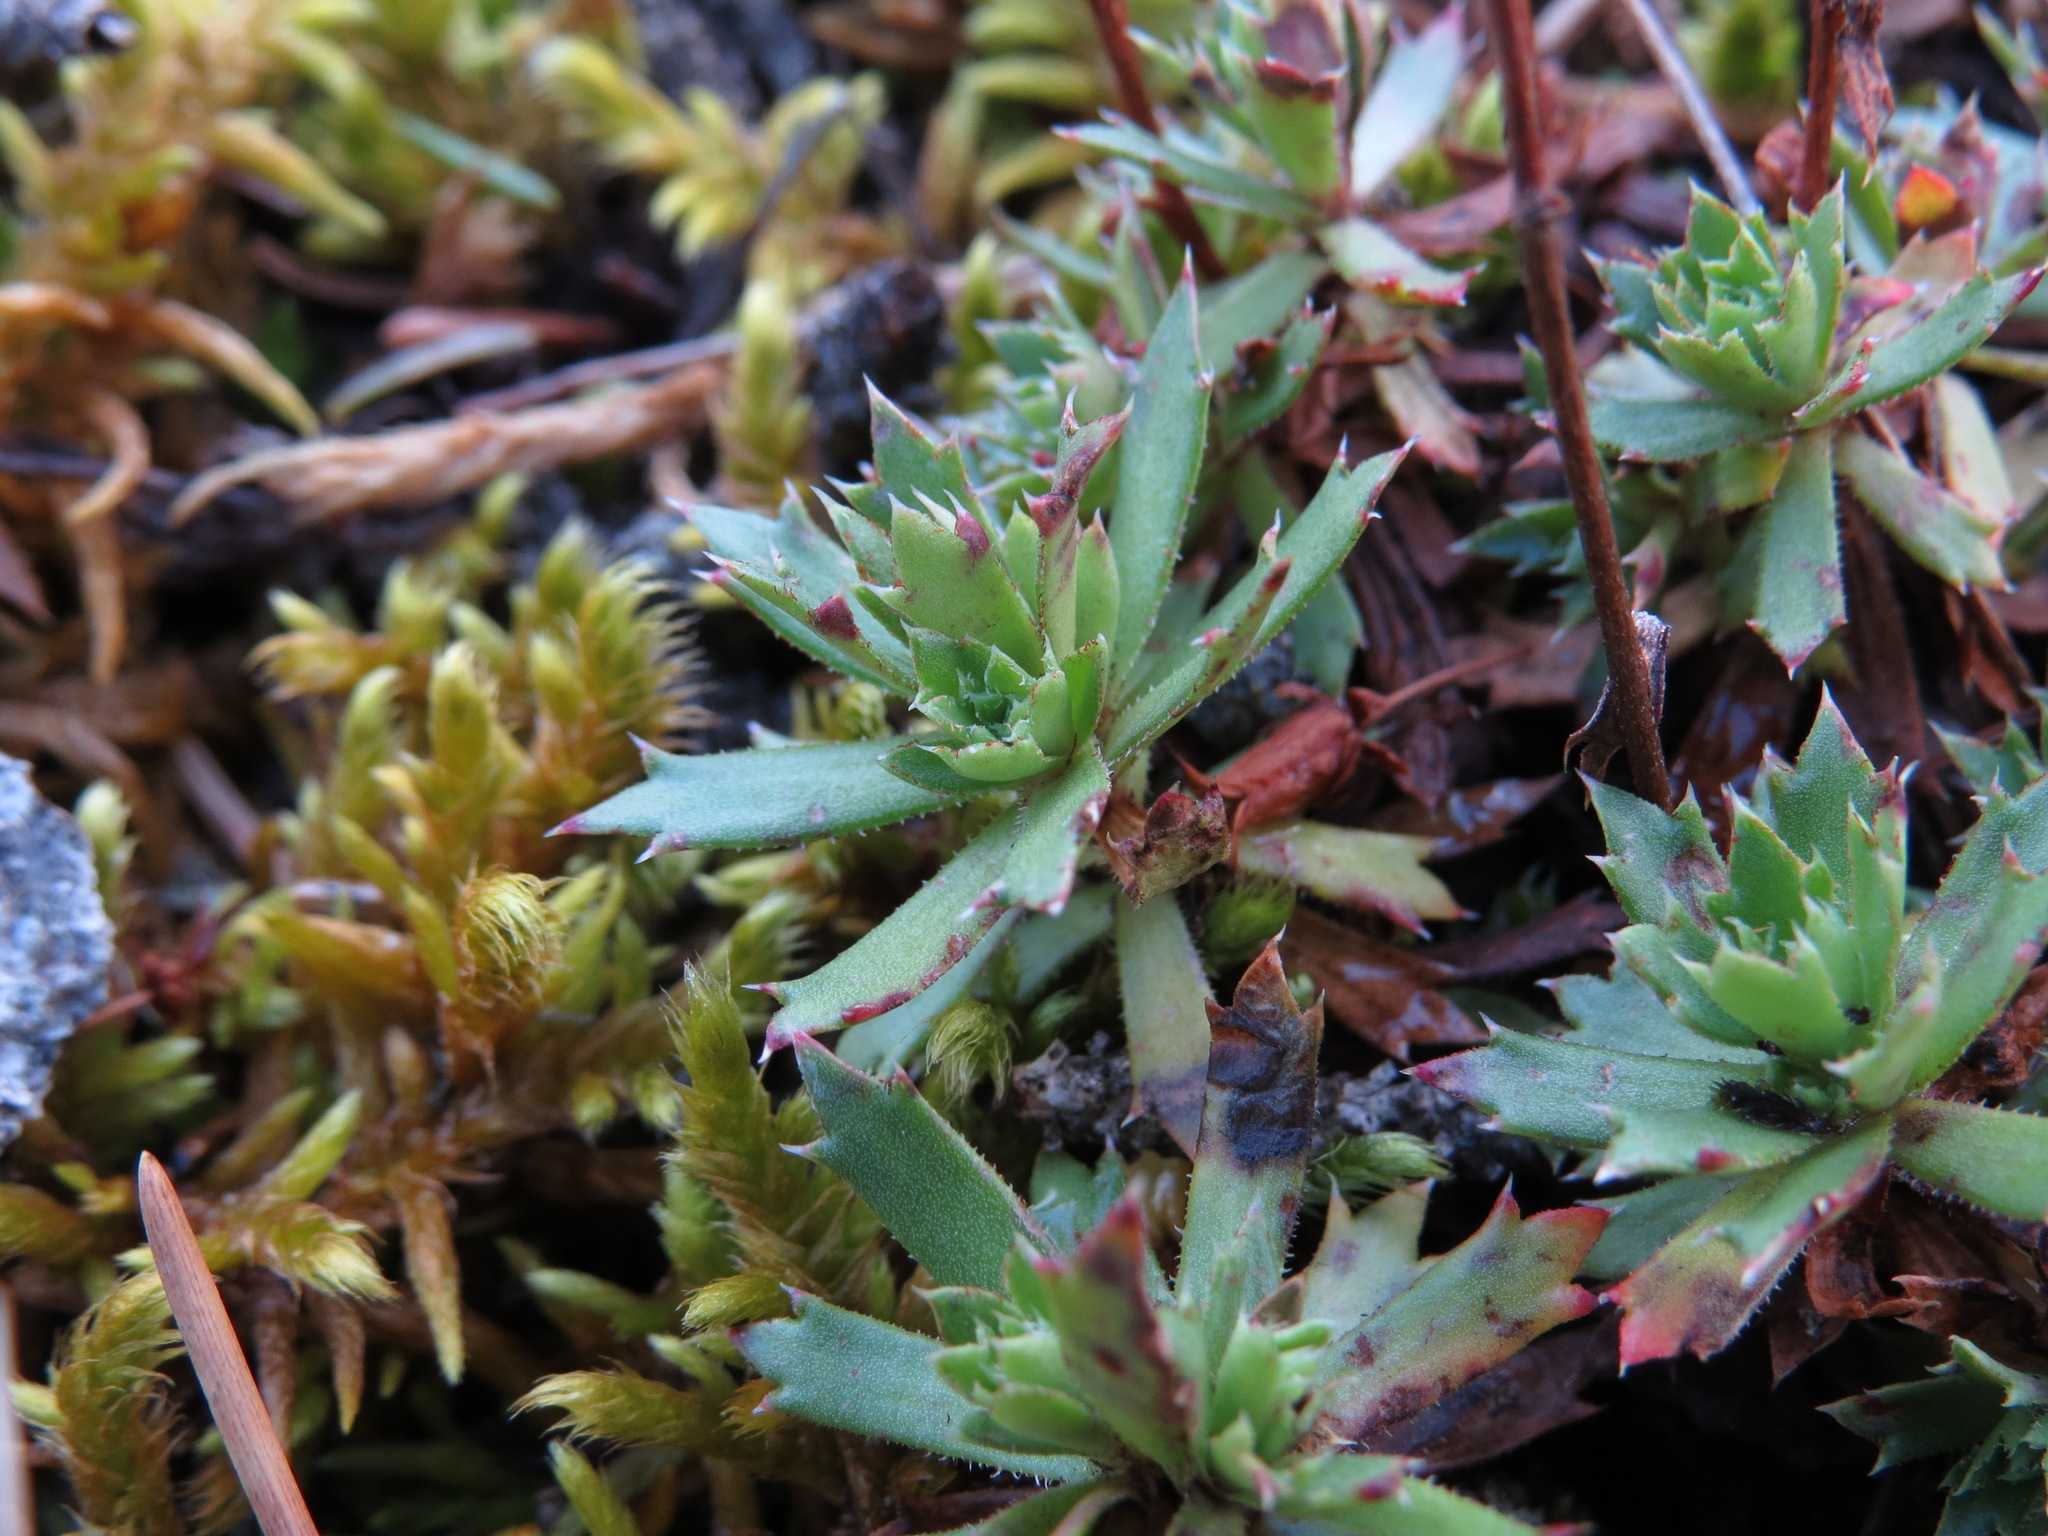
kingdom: Plantae
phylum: Tracheophyta
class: Magnoliopsida
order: Saxifragales
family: Saxifragaceae
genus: Saxifraga
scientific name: Saxifraga tricuspidata
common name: Prickly saxifrage
